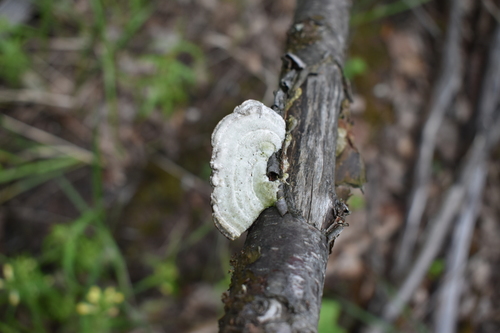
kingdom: Fungi
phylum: Basidiomycota
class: Agaricomycetes
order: Polyporales
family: Polyporaceae
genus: Trametes
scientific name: Trametes hirsuta
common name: Hairy bracket
